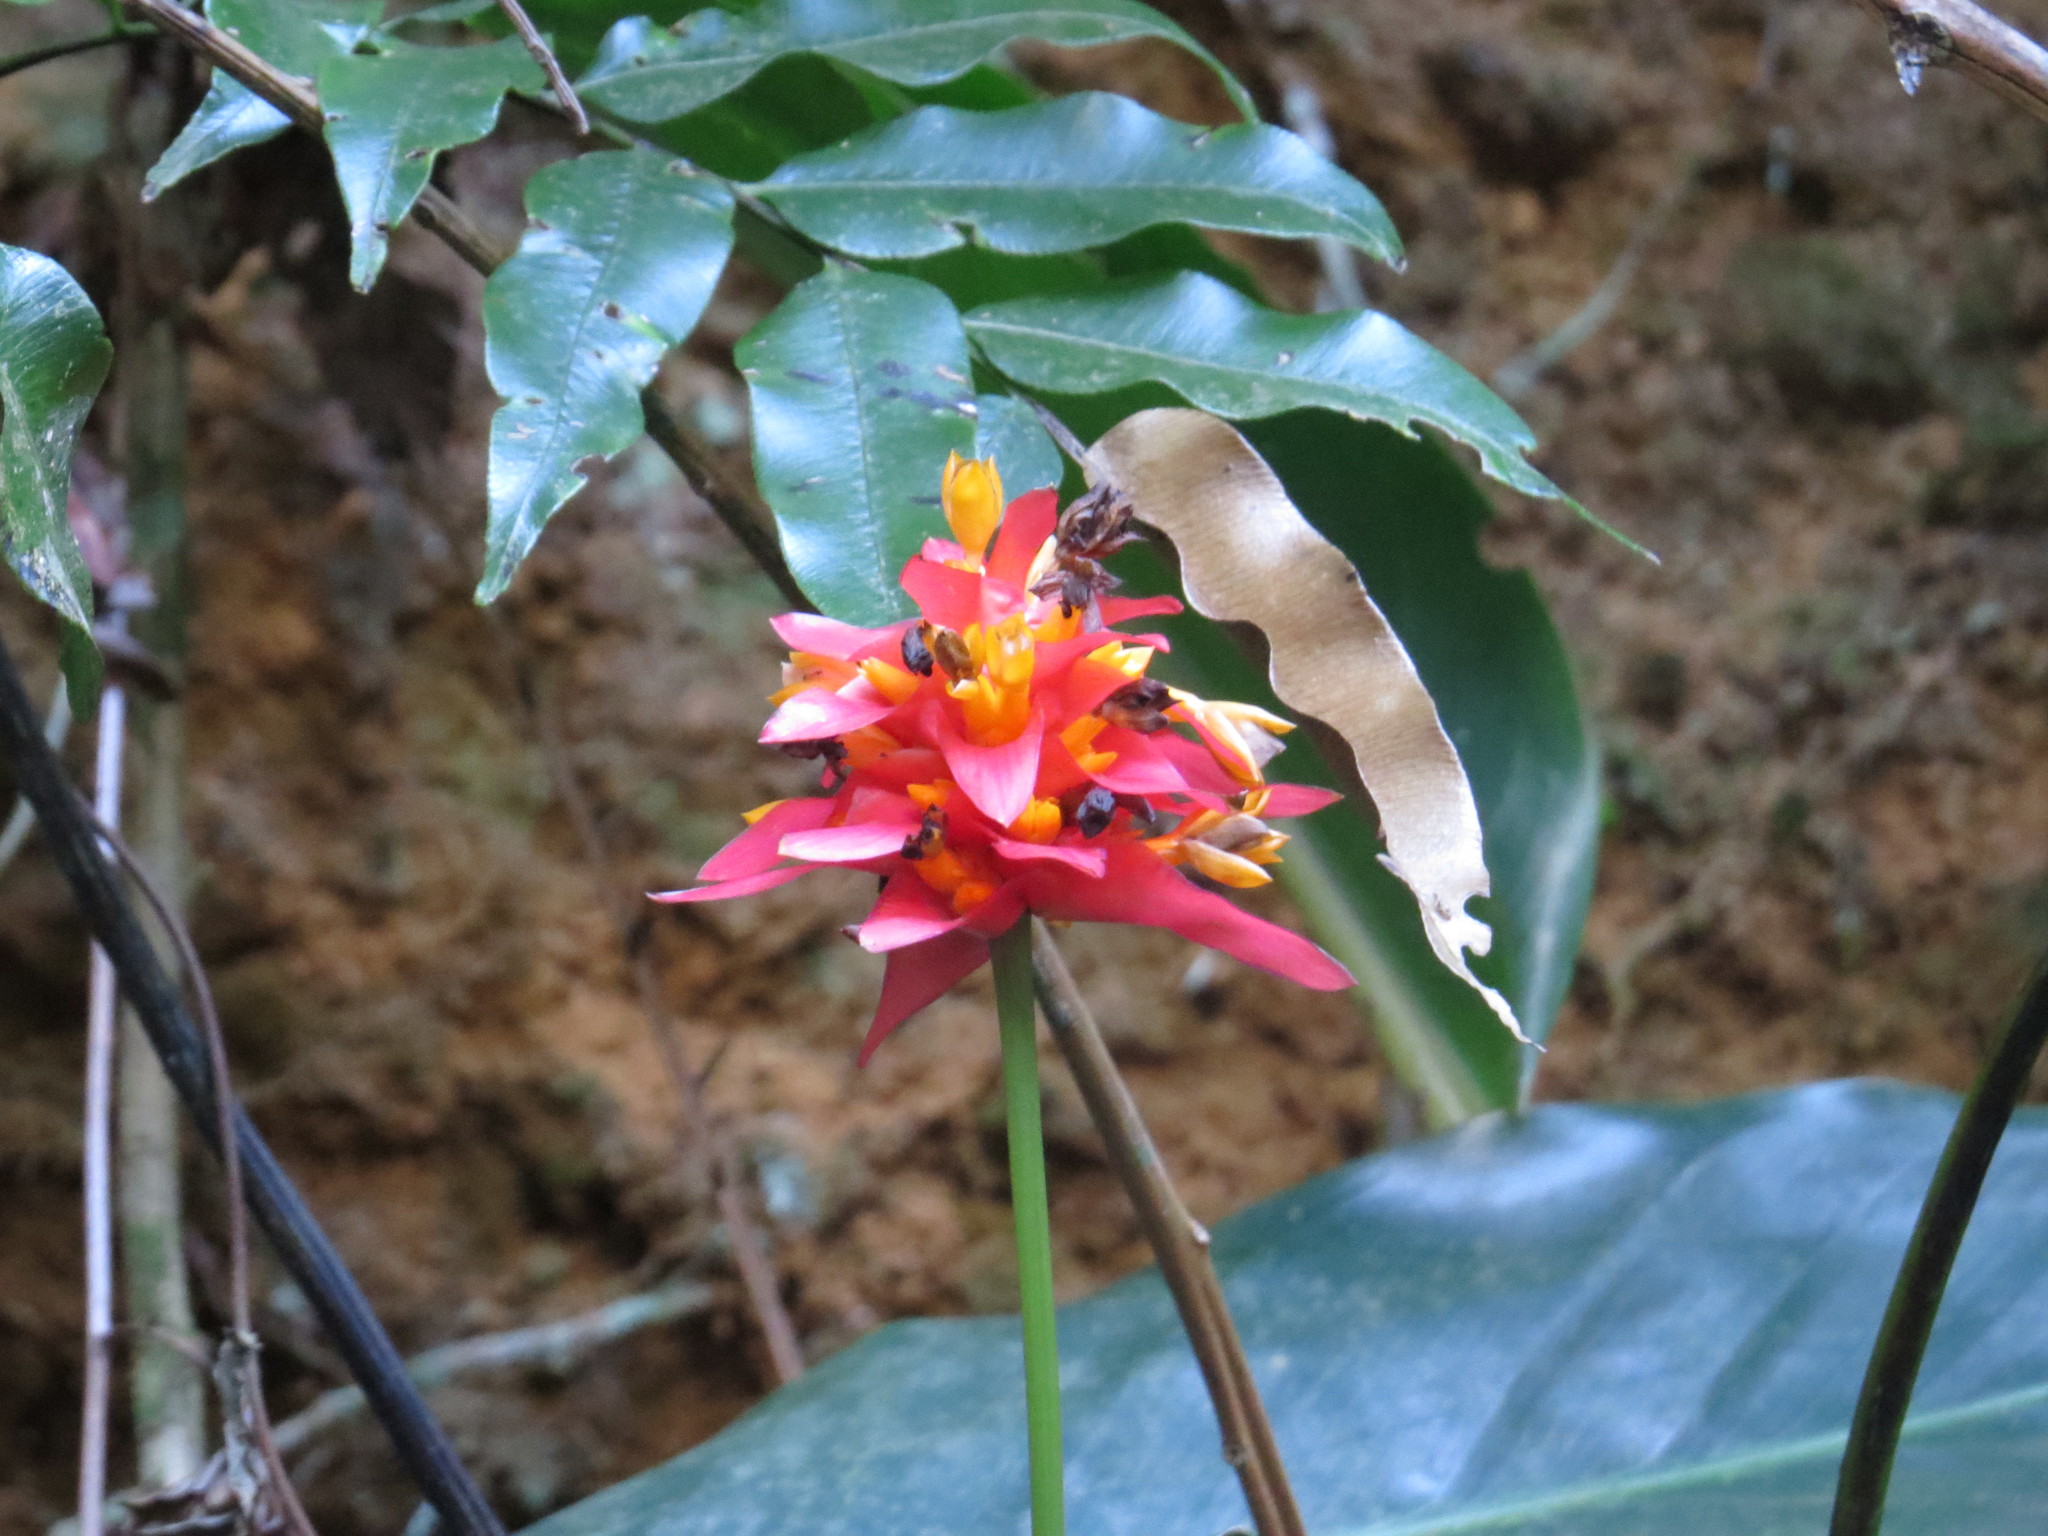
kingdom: Plantae
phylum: Tracheophyta
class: Liliopsida
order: Zingiberales
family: Marantaceae
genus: Goeppertia
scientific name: Goeppertia colorata
